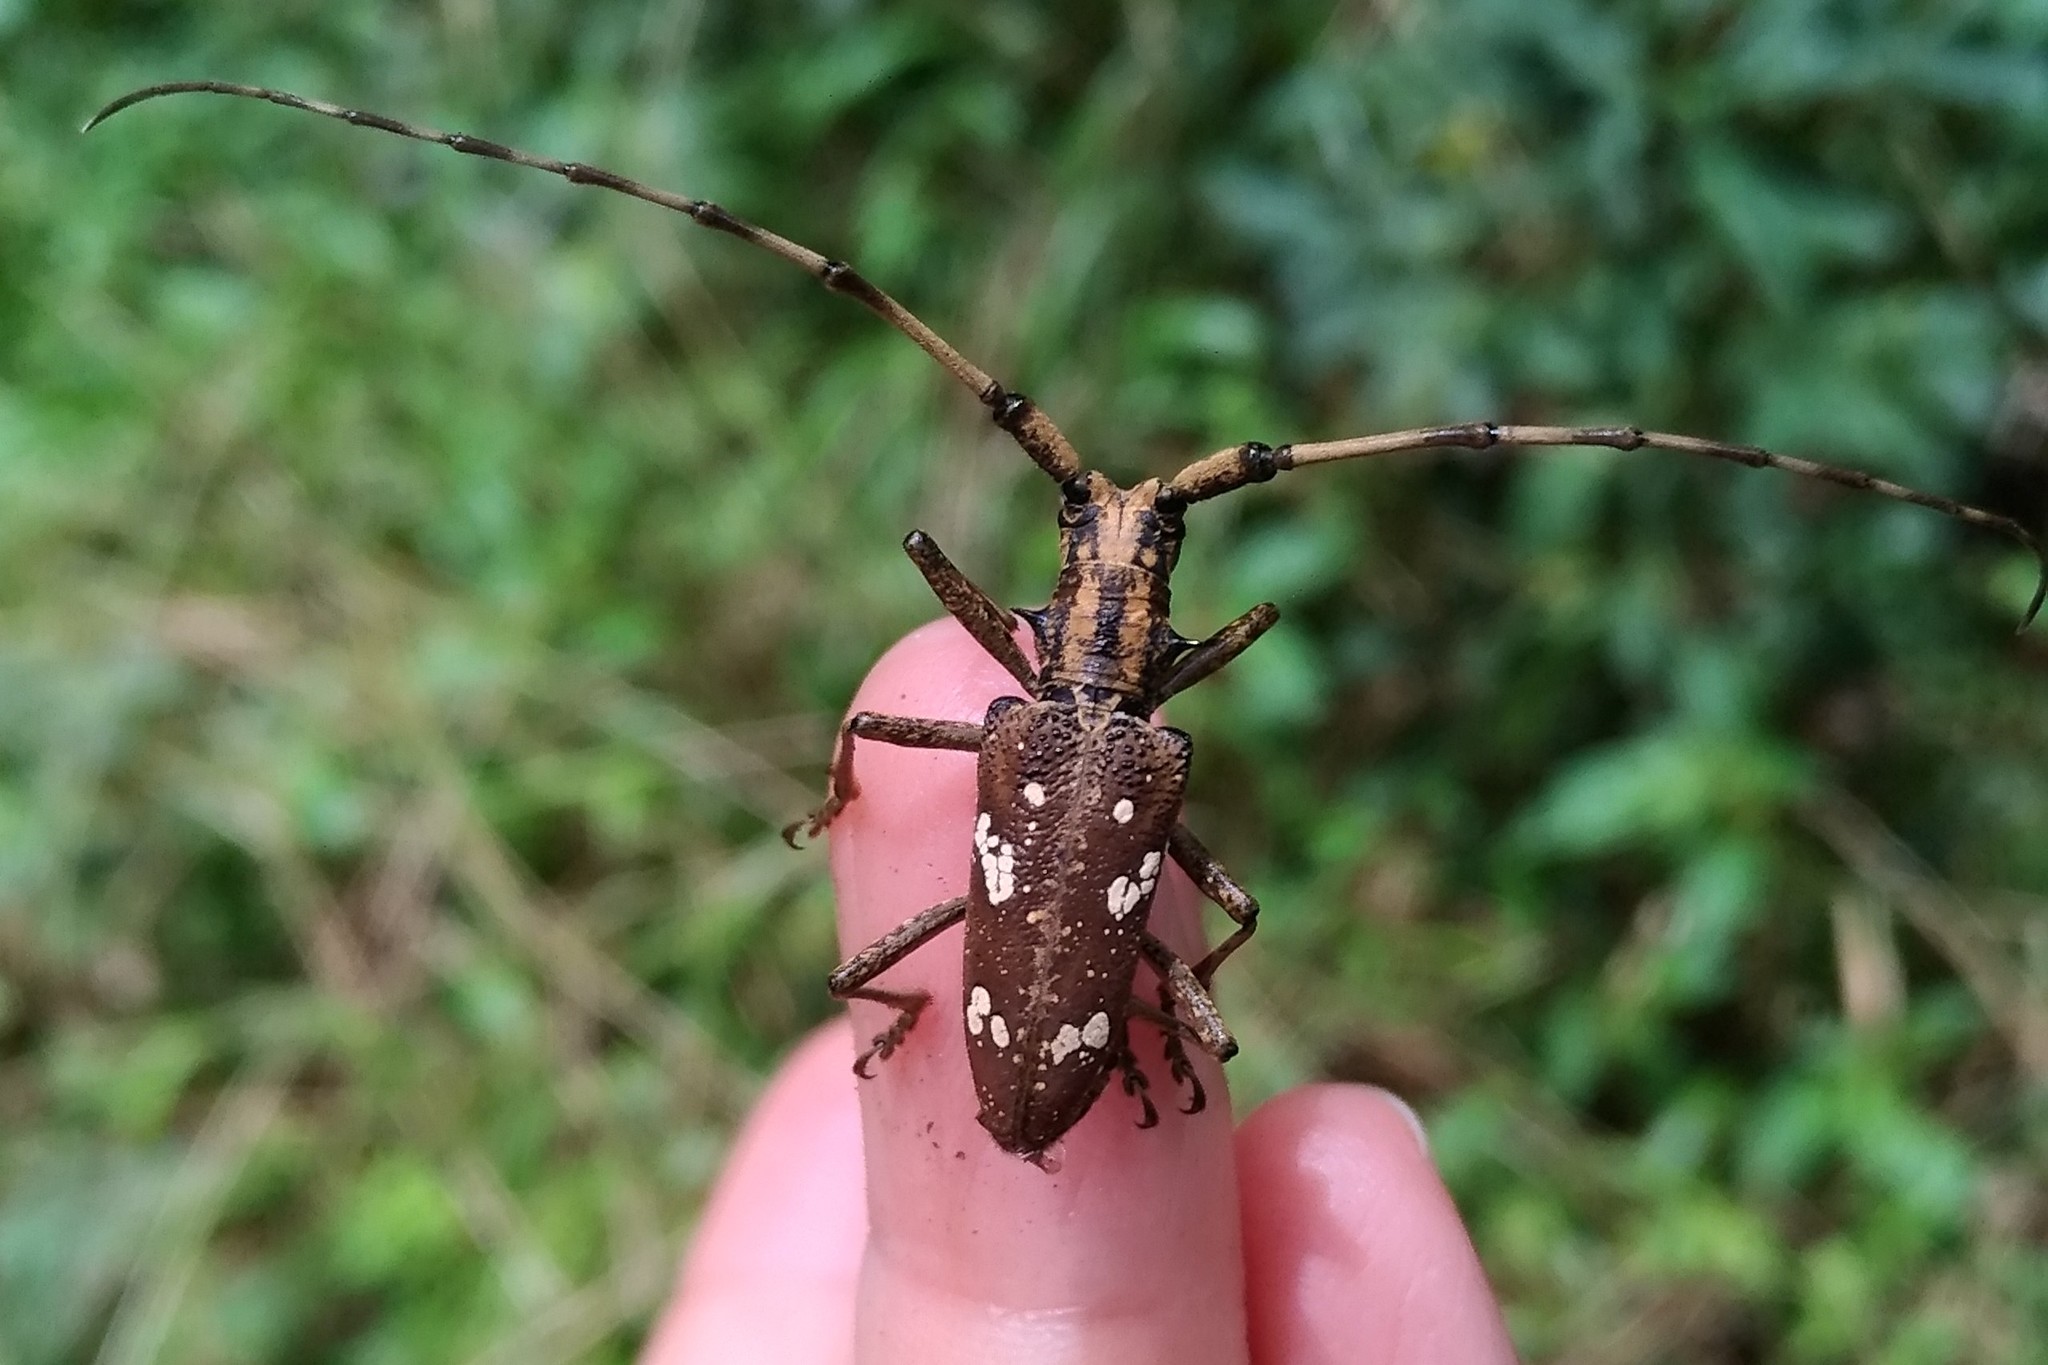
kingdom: Animalia
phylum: Arthropoda
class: Insecta
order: Coleoptera
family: Cerambycidae
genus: Paraleprodera
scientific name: Paraleprodera itzingeri
